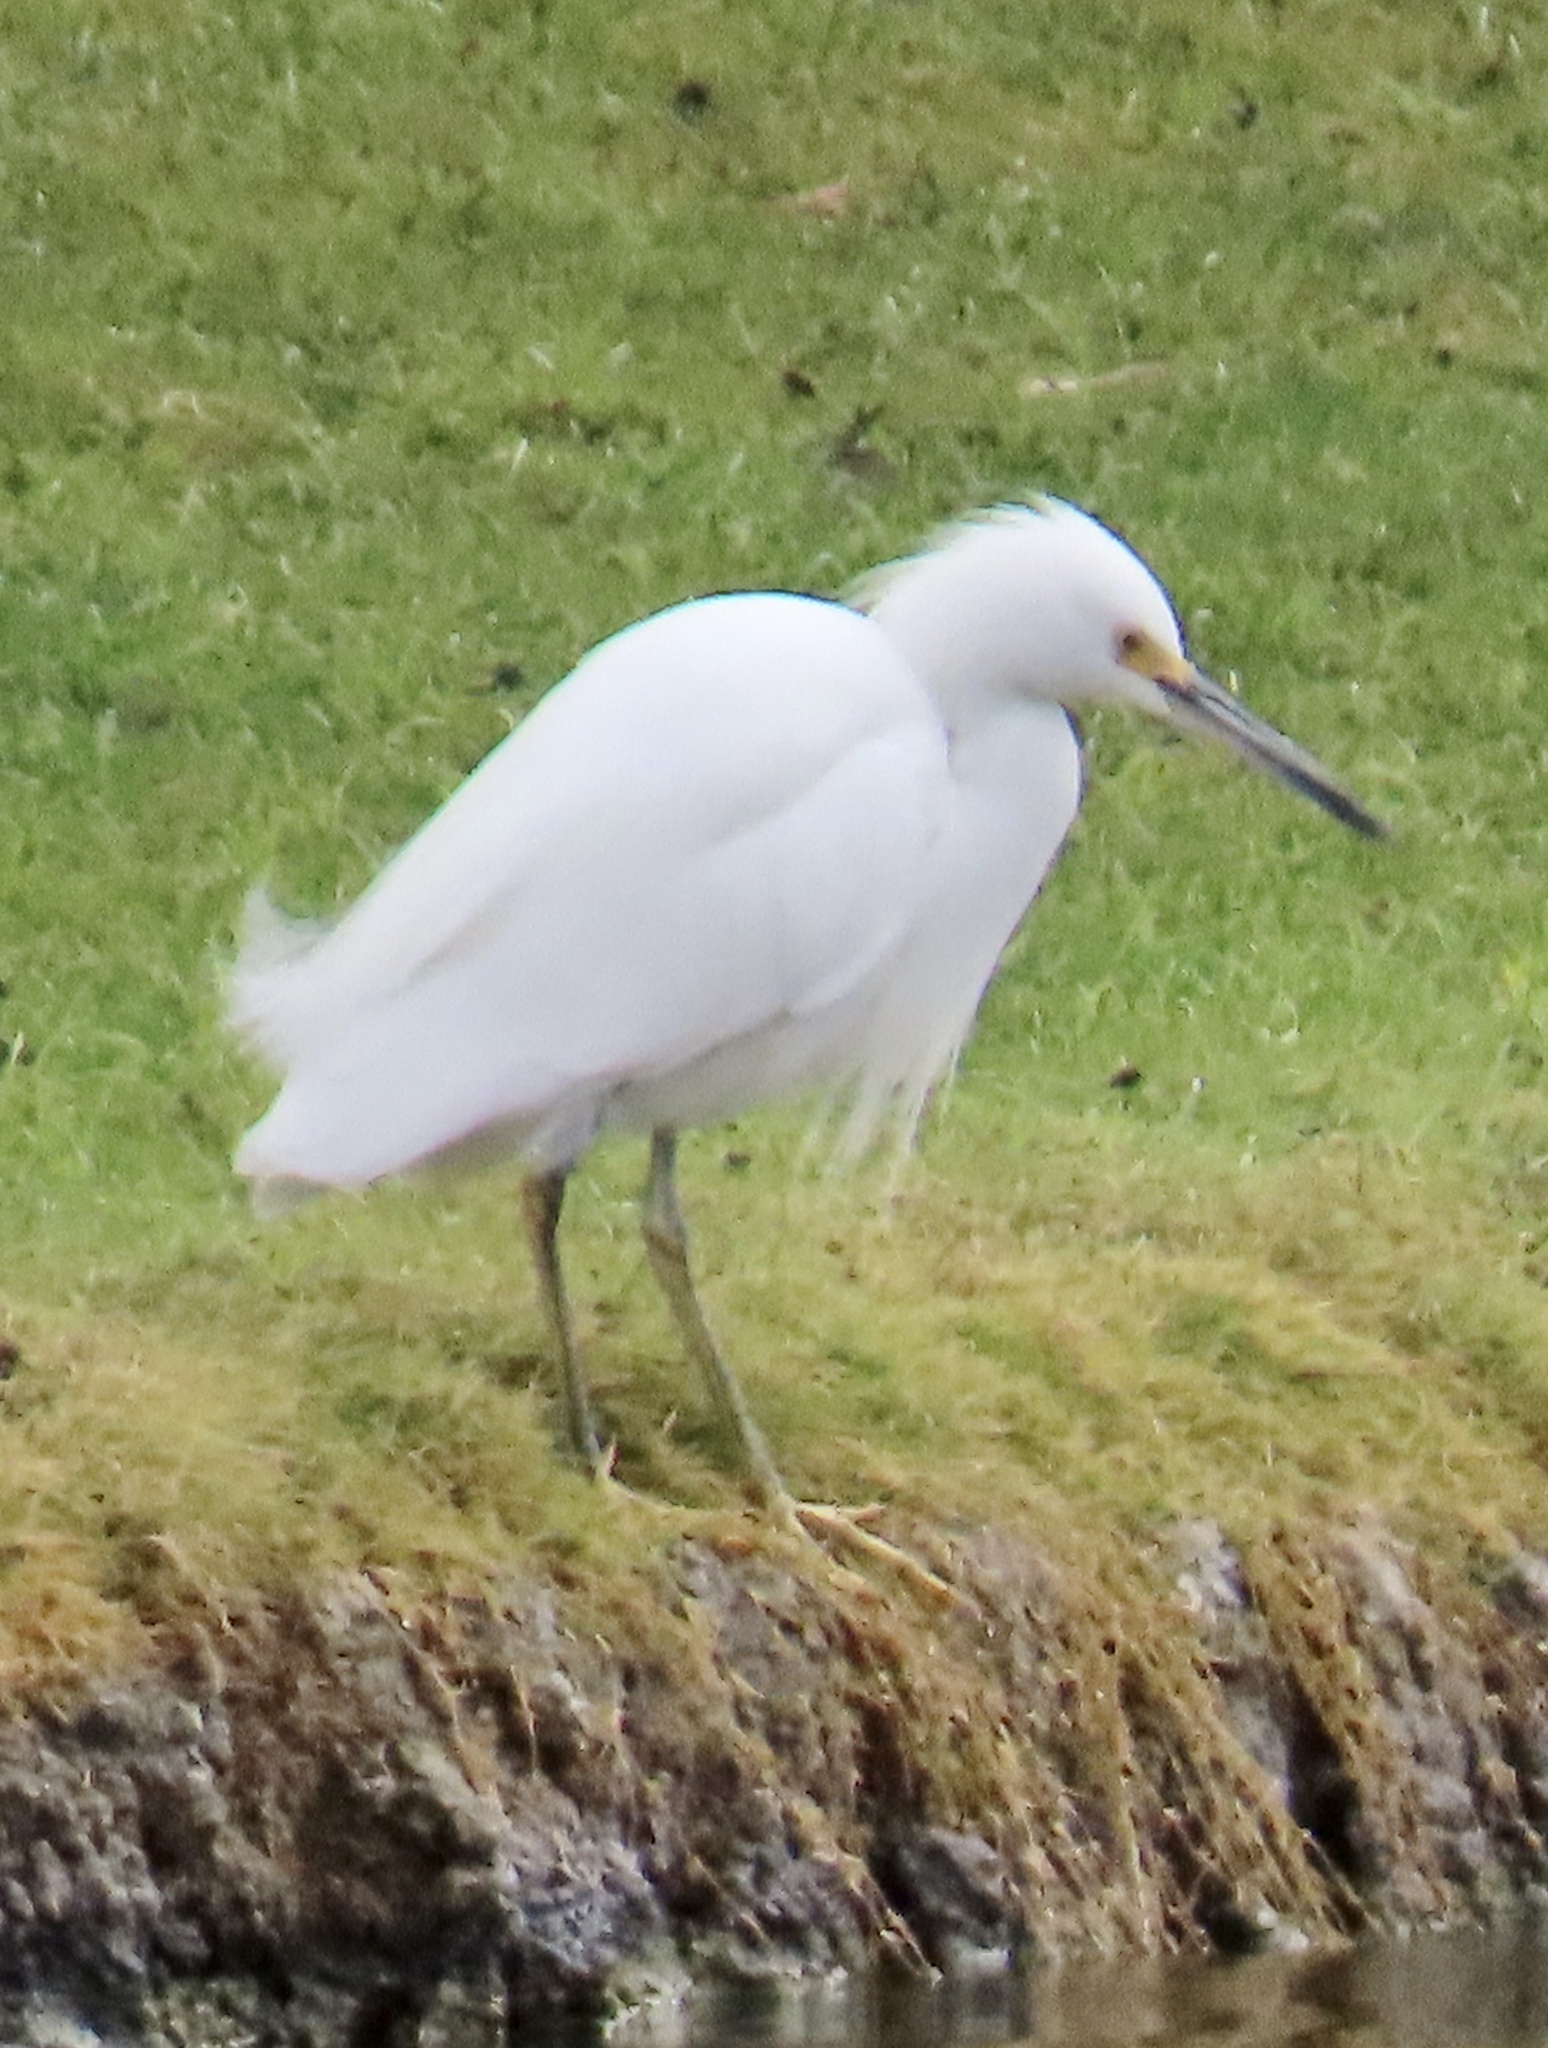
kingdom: Animalia
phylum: Chordata
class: Aves
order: Pelecaniformes
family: Ardeidae
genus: Egretta
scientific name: Egretta thula
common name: Snowy egret
